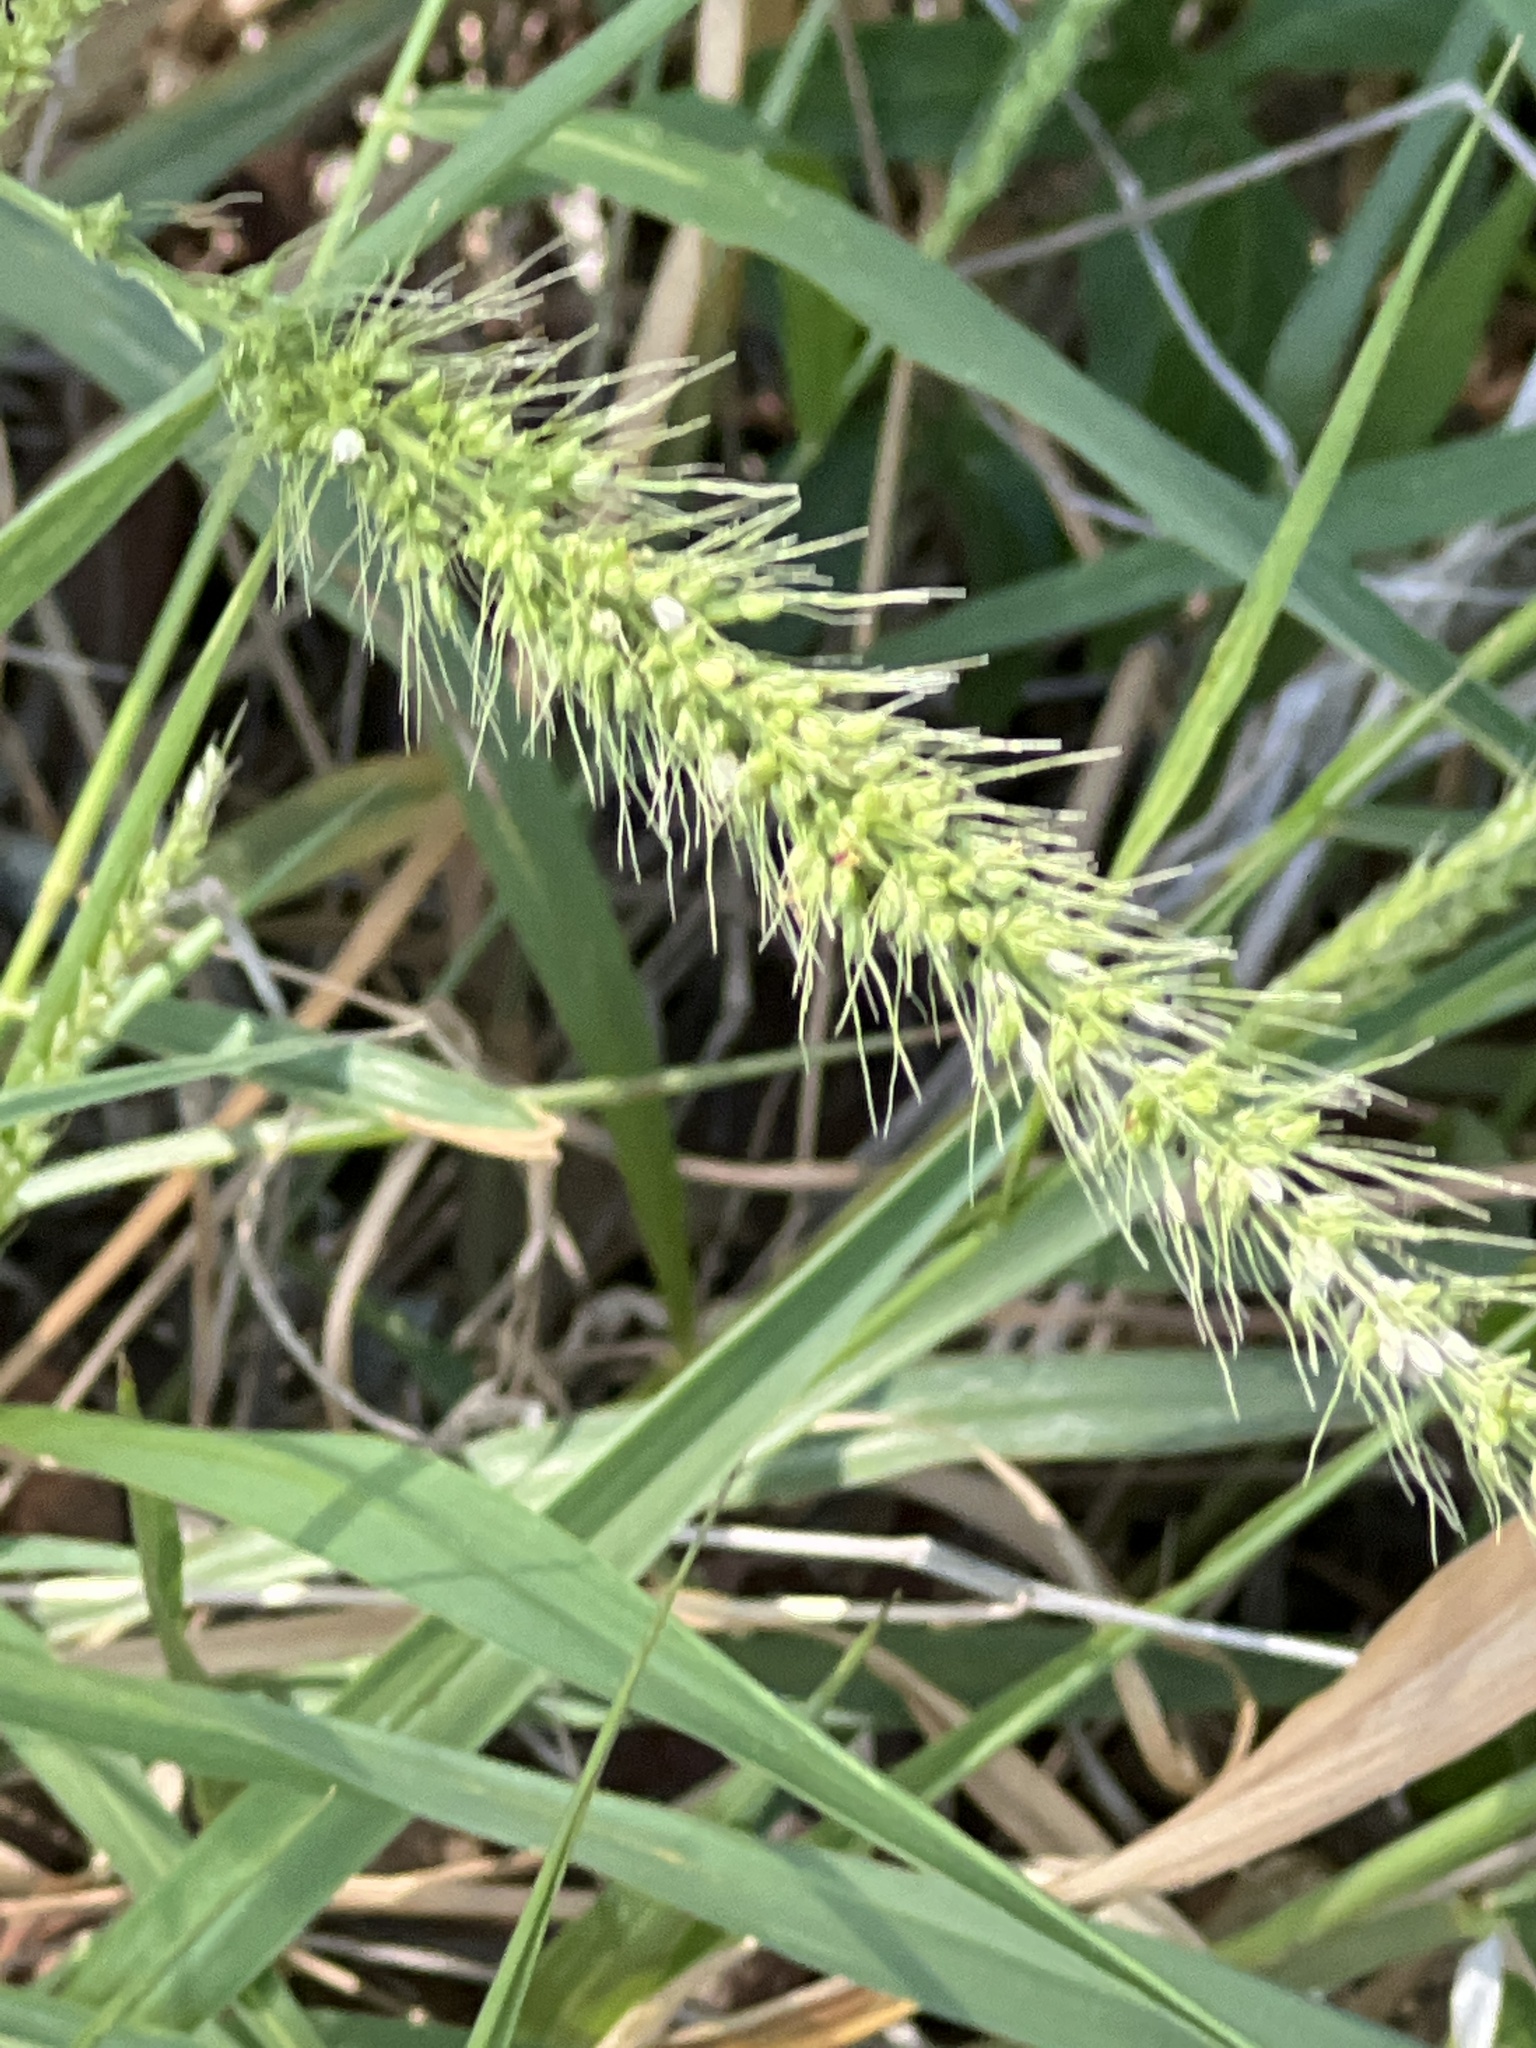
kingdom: Plantae
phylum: Tracheophyta
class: Liliopsida
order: Poales
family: Poaceae
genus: Setaria
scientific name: Setaria scheelei
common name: Southwestern bristle grass
